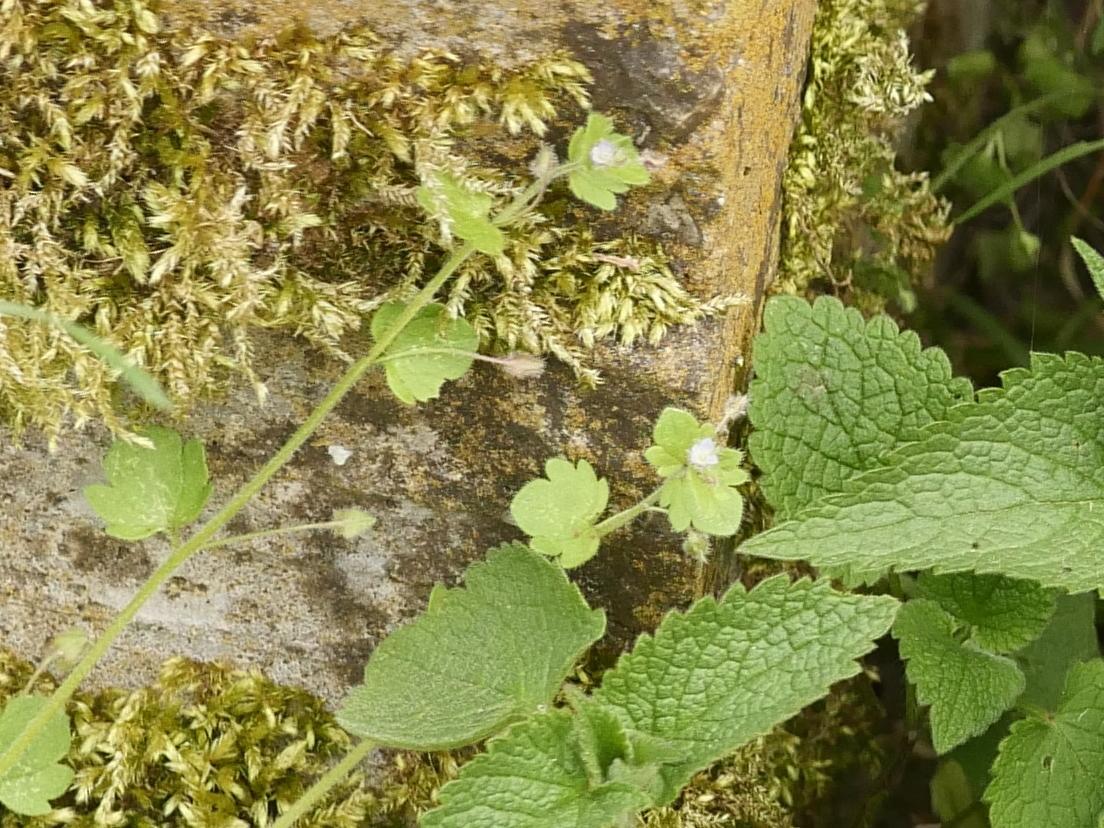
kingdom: Plantae
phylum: Tracheophyta
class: Magnoliopsida
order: Lamiales
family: Plantaginaceae
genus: Veronica
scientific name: Veronica sublobata
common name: False ivy-leaved speedwell
